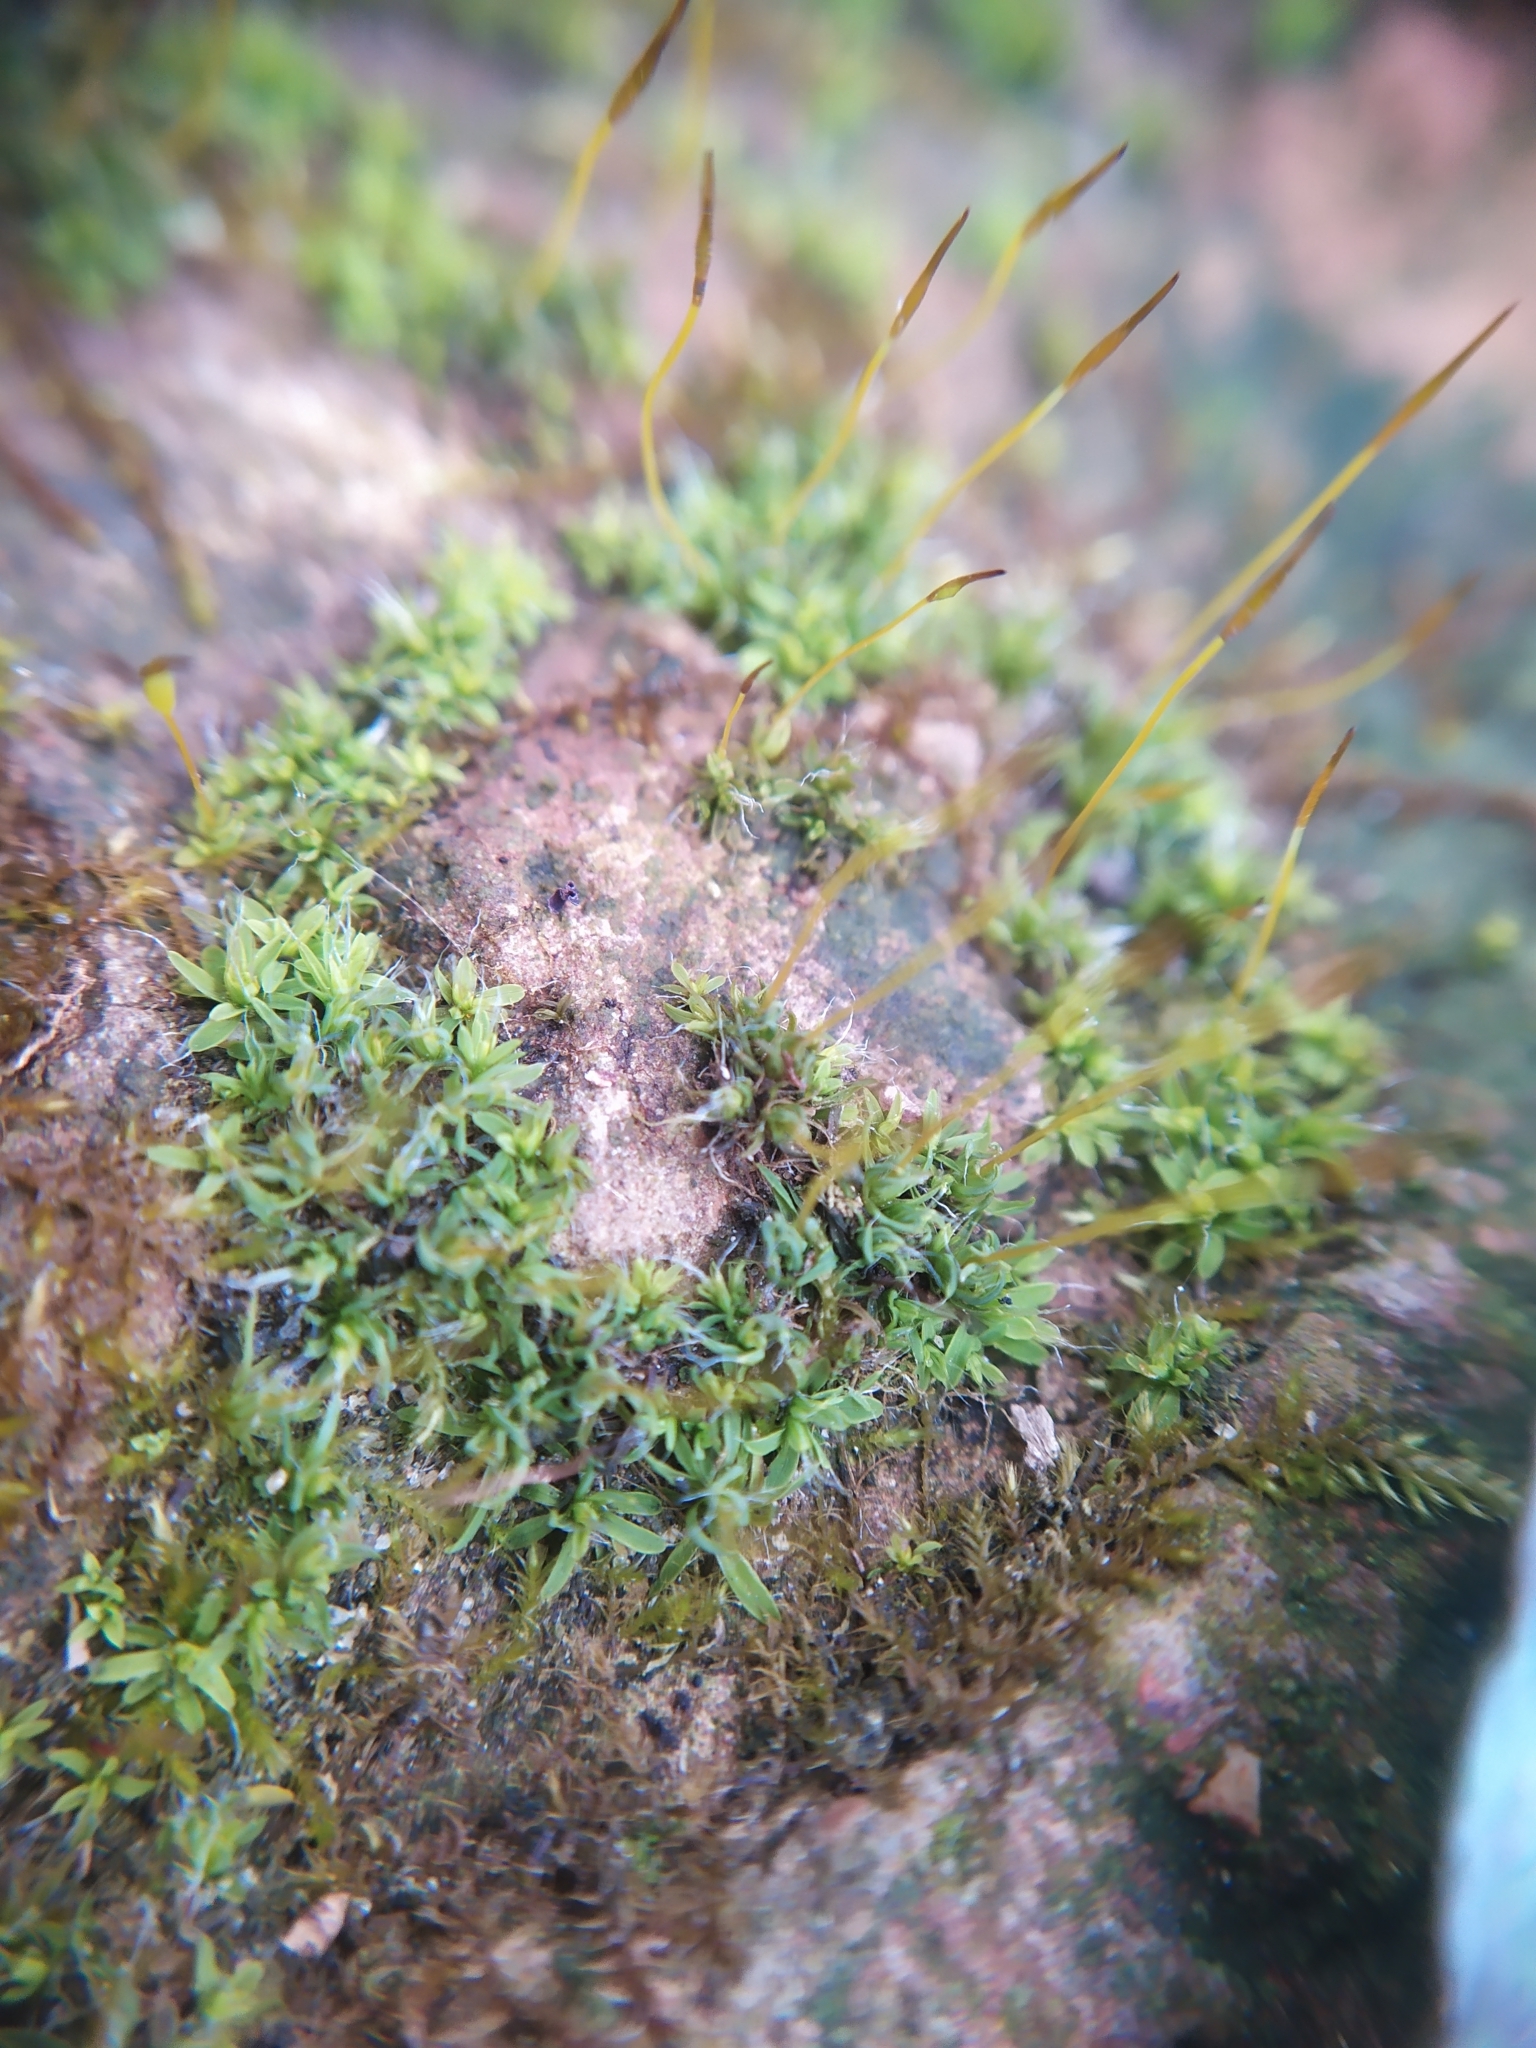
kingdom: Plantae
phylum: Bryophyta
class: Bryopsida
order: Pottiales
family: Pottiaceae
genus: Tortula
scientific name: Tortula muralis
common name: Wall screw-moss
